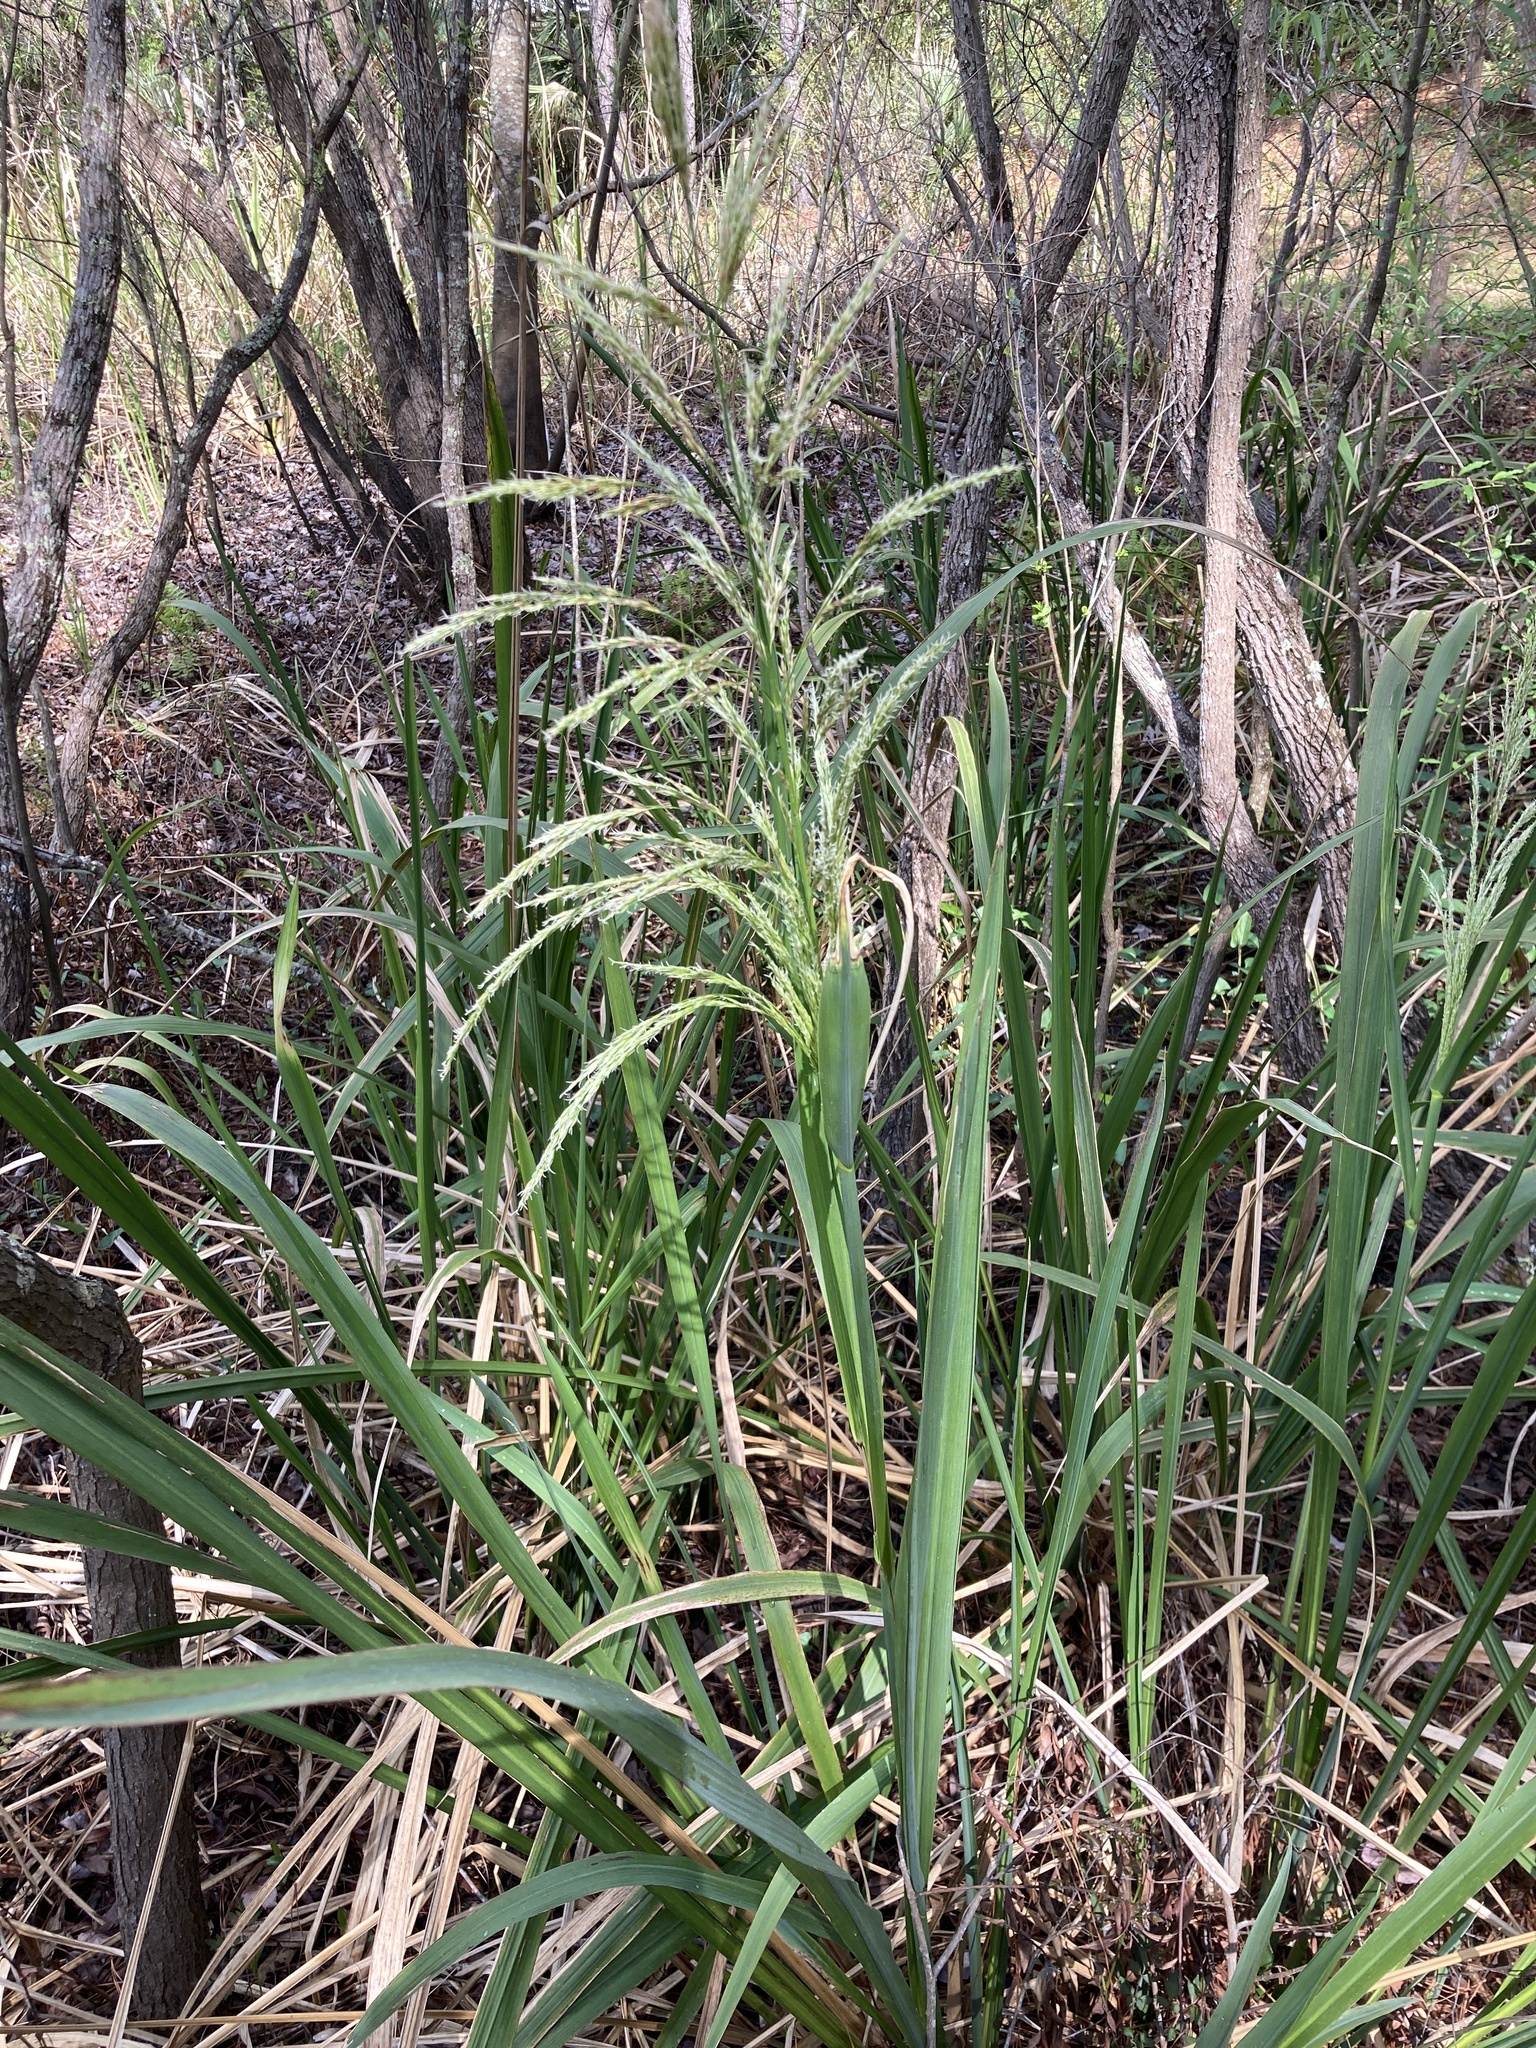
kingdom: Plantae
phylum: Tracheophyta
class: Liliopsida
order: Poales
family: Poaceae
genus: Zizaniopsis
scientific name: Zizaniopsis miliacea
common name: Giant-cutgrass
